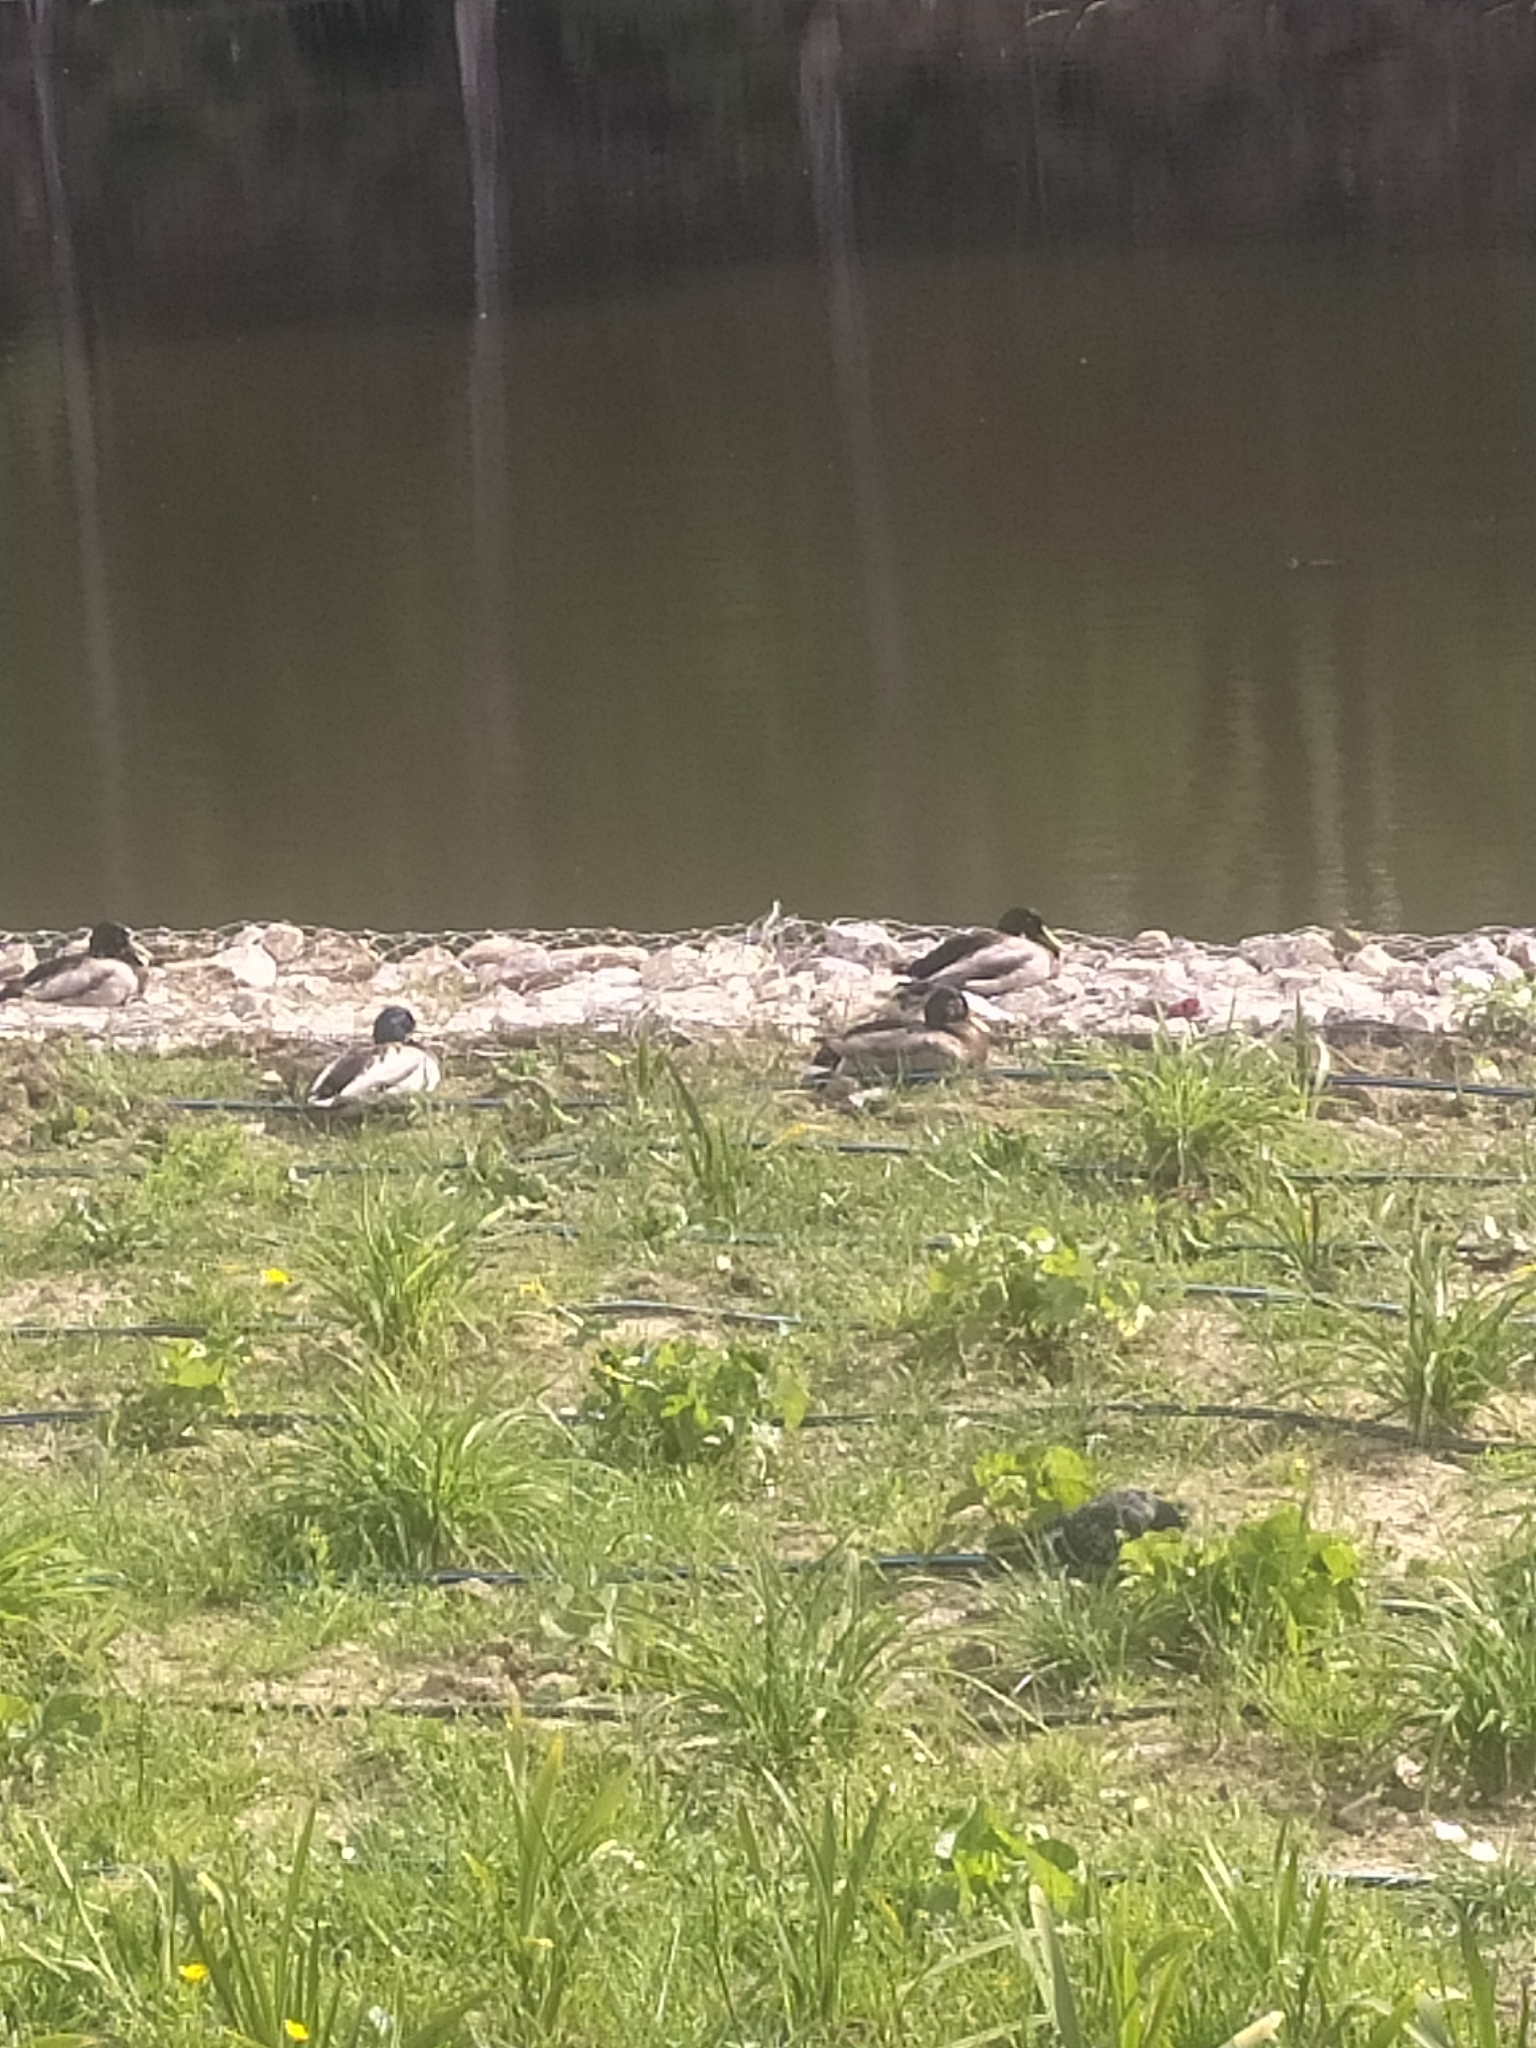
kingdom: Animalia
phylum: Chordata
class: Aves
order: Anseriformes
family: Anatidae
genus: Anas
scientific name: Anas platyrhynchos
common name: Mallard
